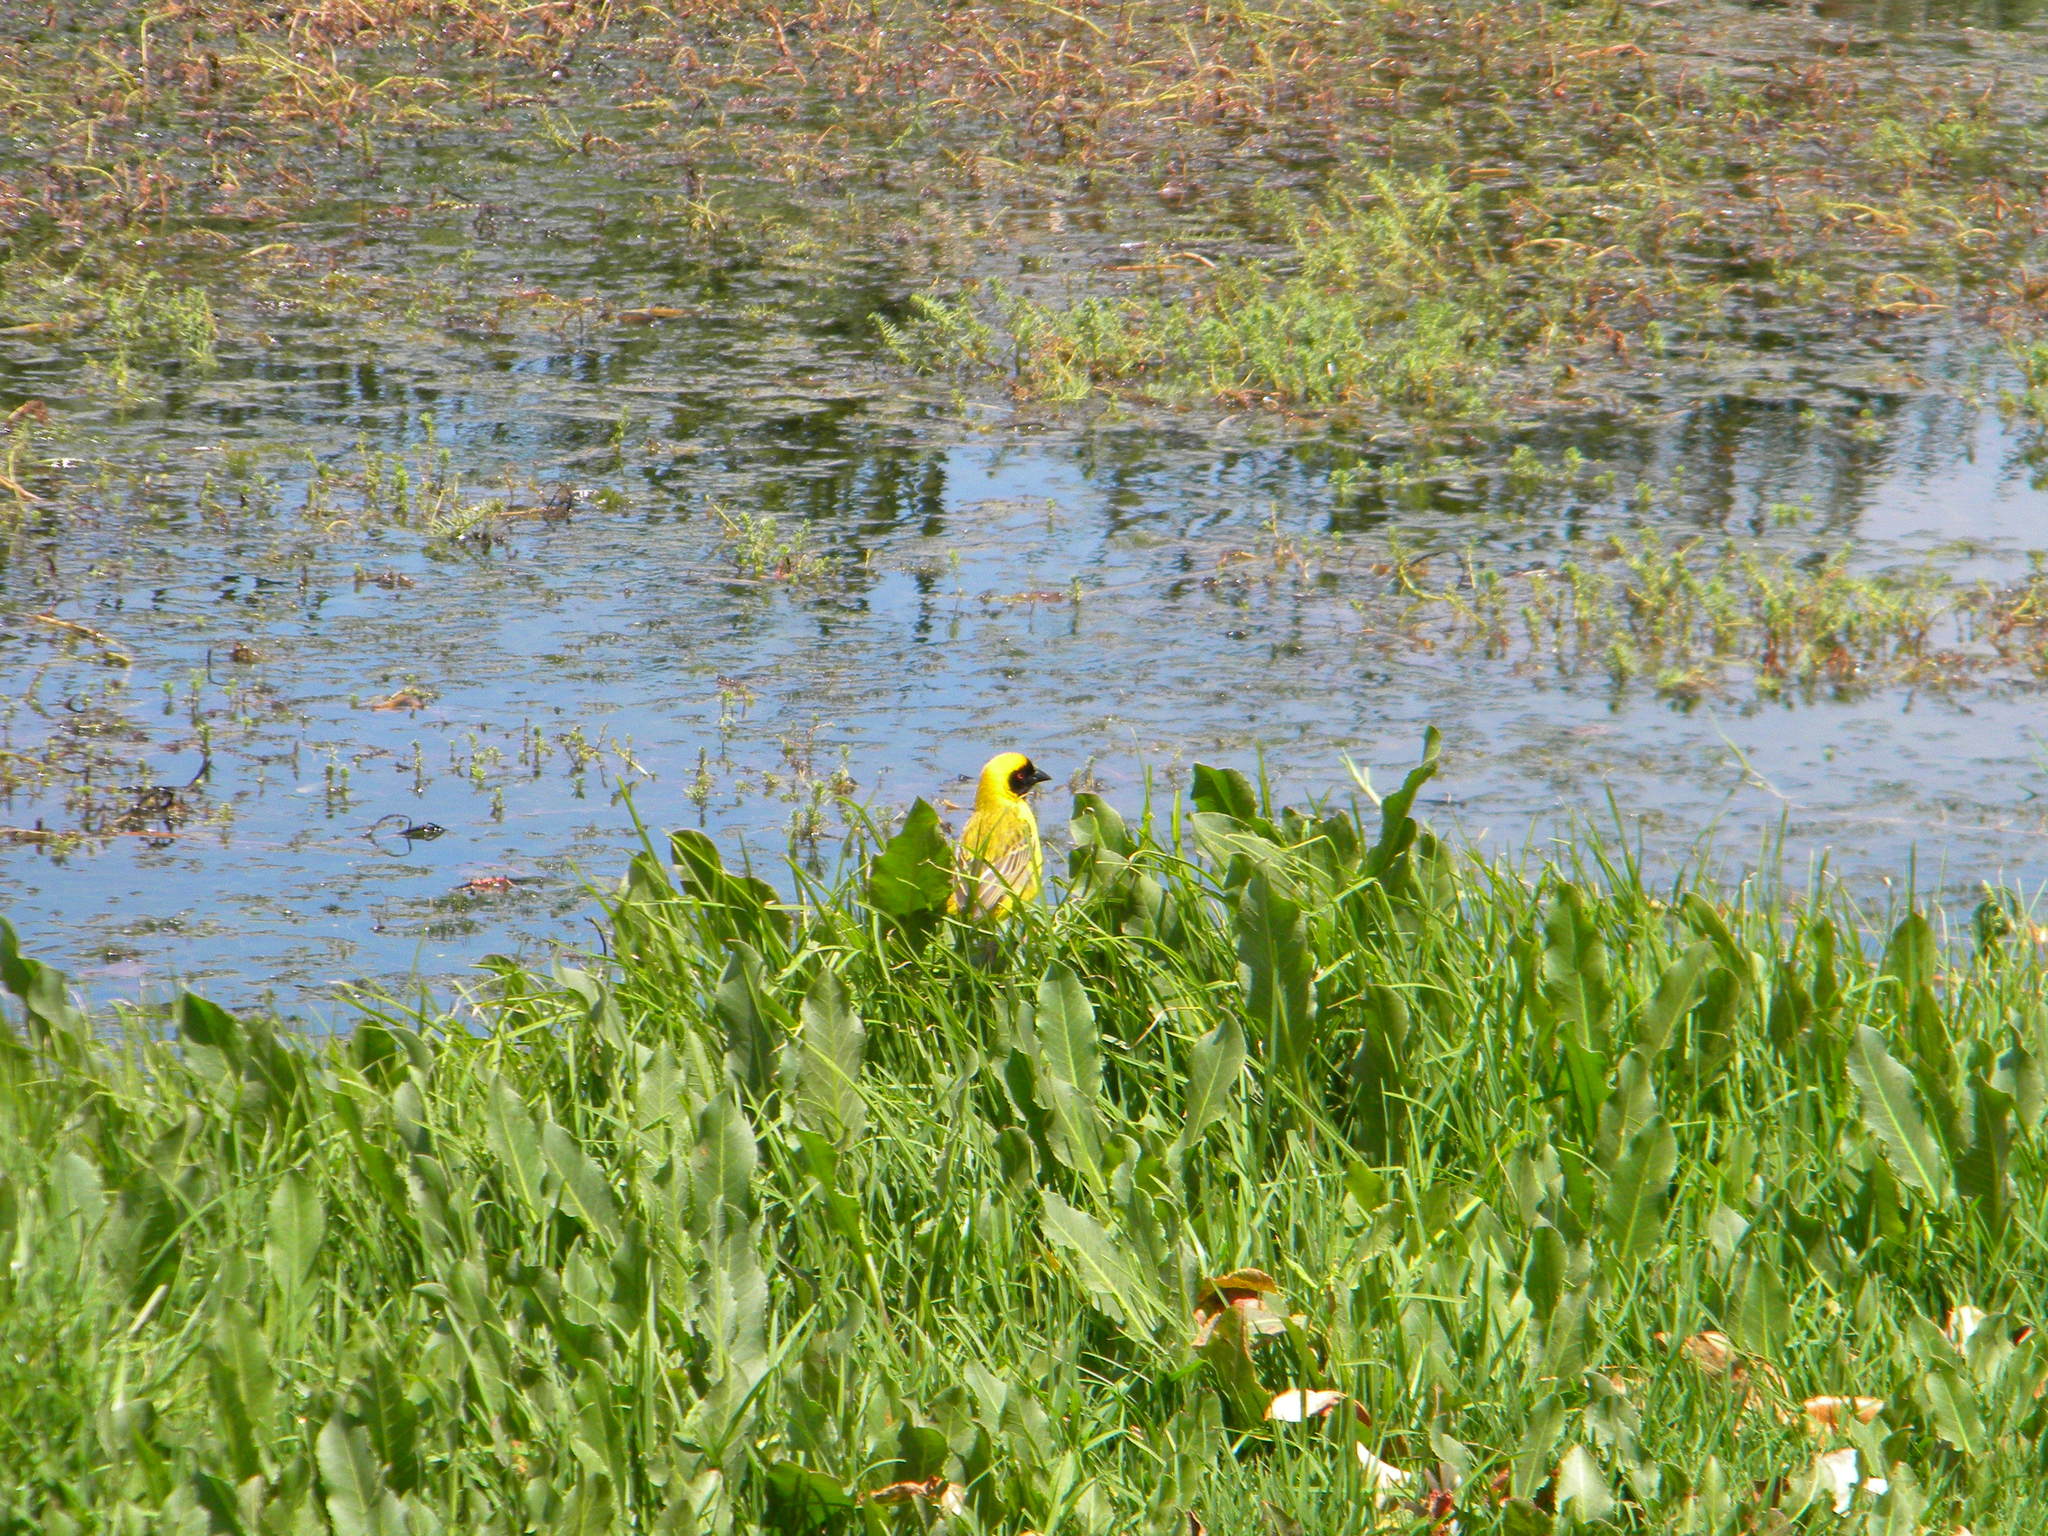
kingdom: Animalia
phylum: Chordata
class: Aves
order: Passeriformes
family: Ploceidae
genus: Ploceus
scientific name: Ploceus velatus
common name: Southern masked weaver
